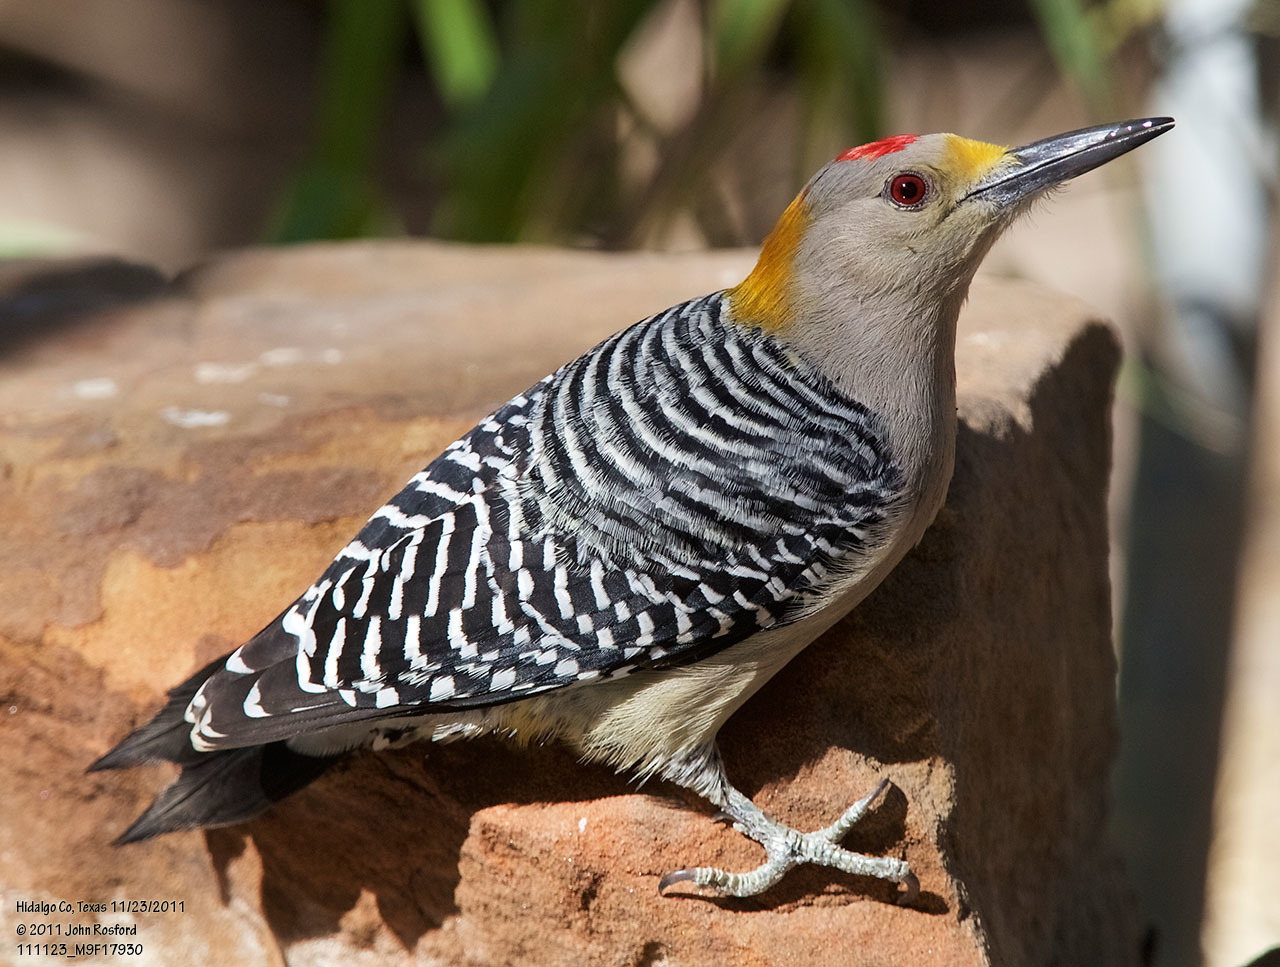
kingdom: Animalia
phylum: Chordata
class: Aves
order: Piciformes
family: Picidae
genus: Melanerpes
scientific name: Melanerpes aurifrons
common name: Golden-fronted woodpecker
